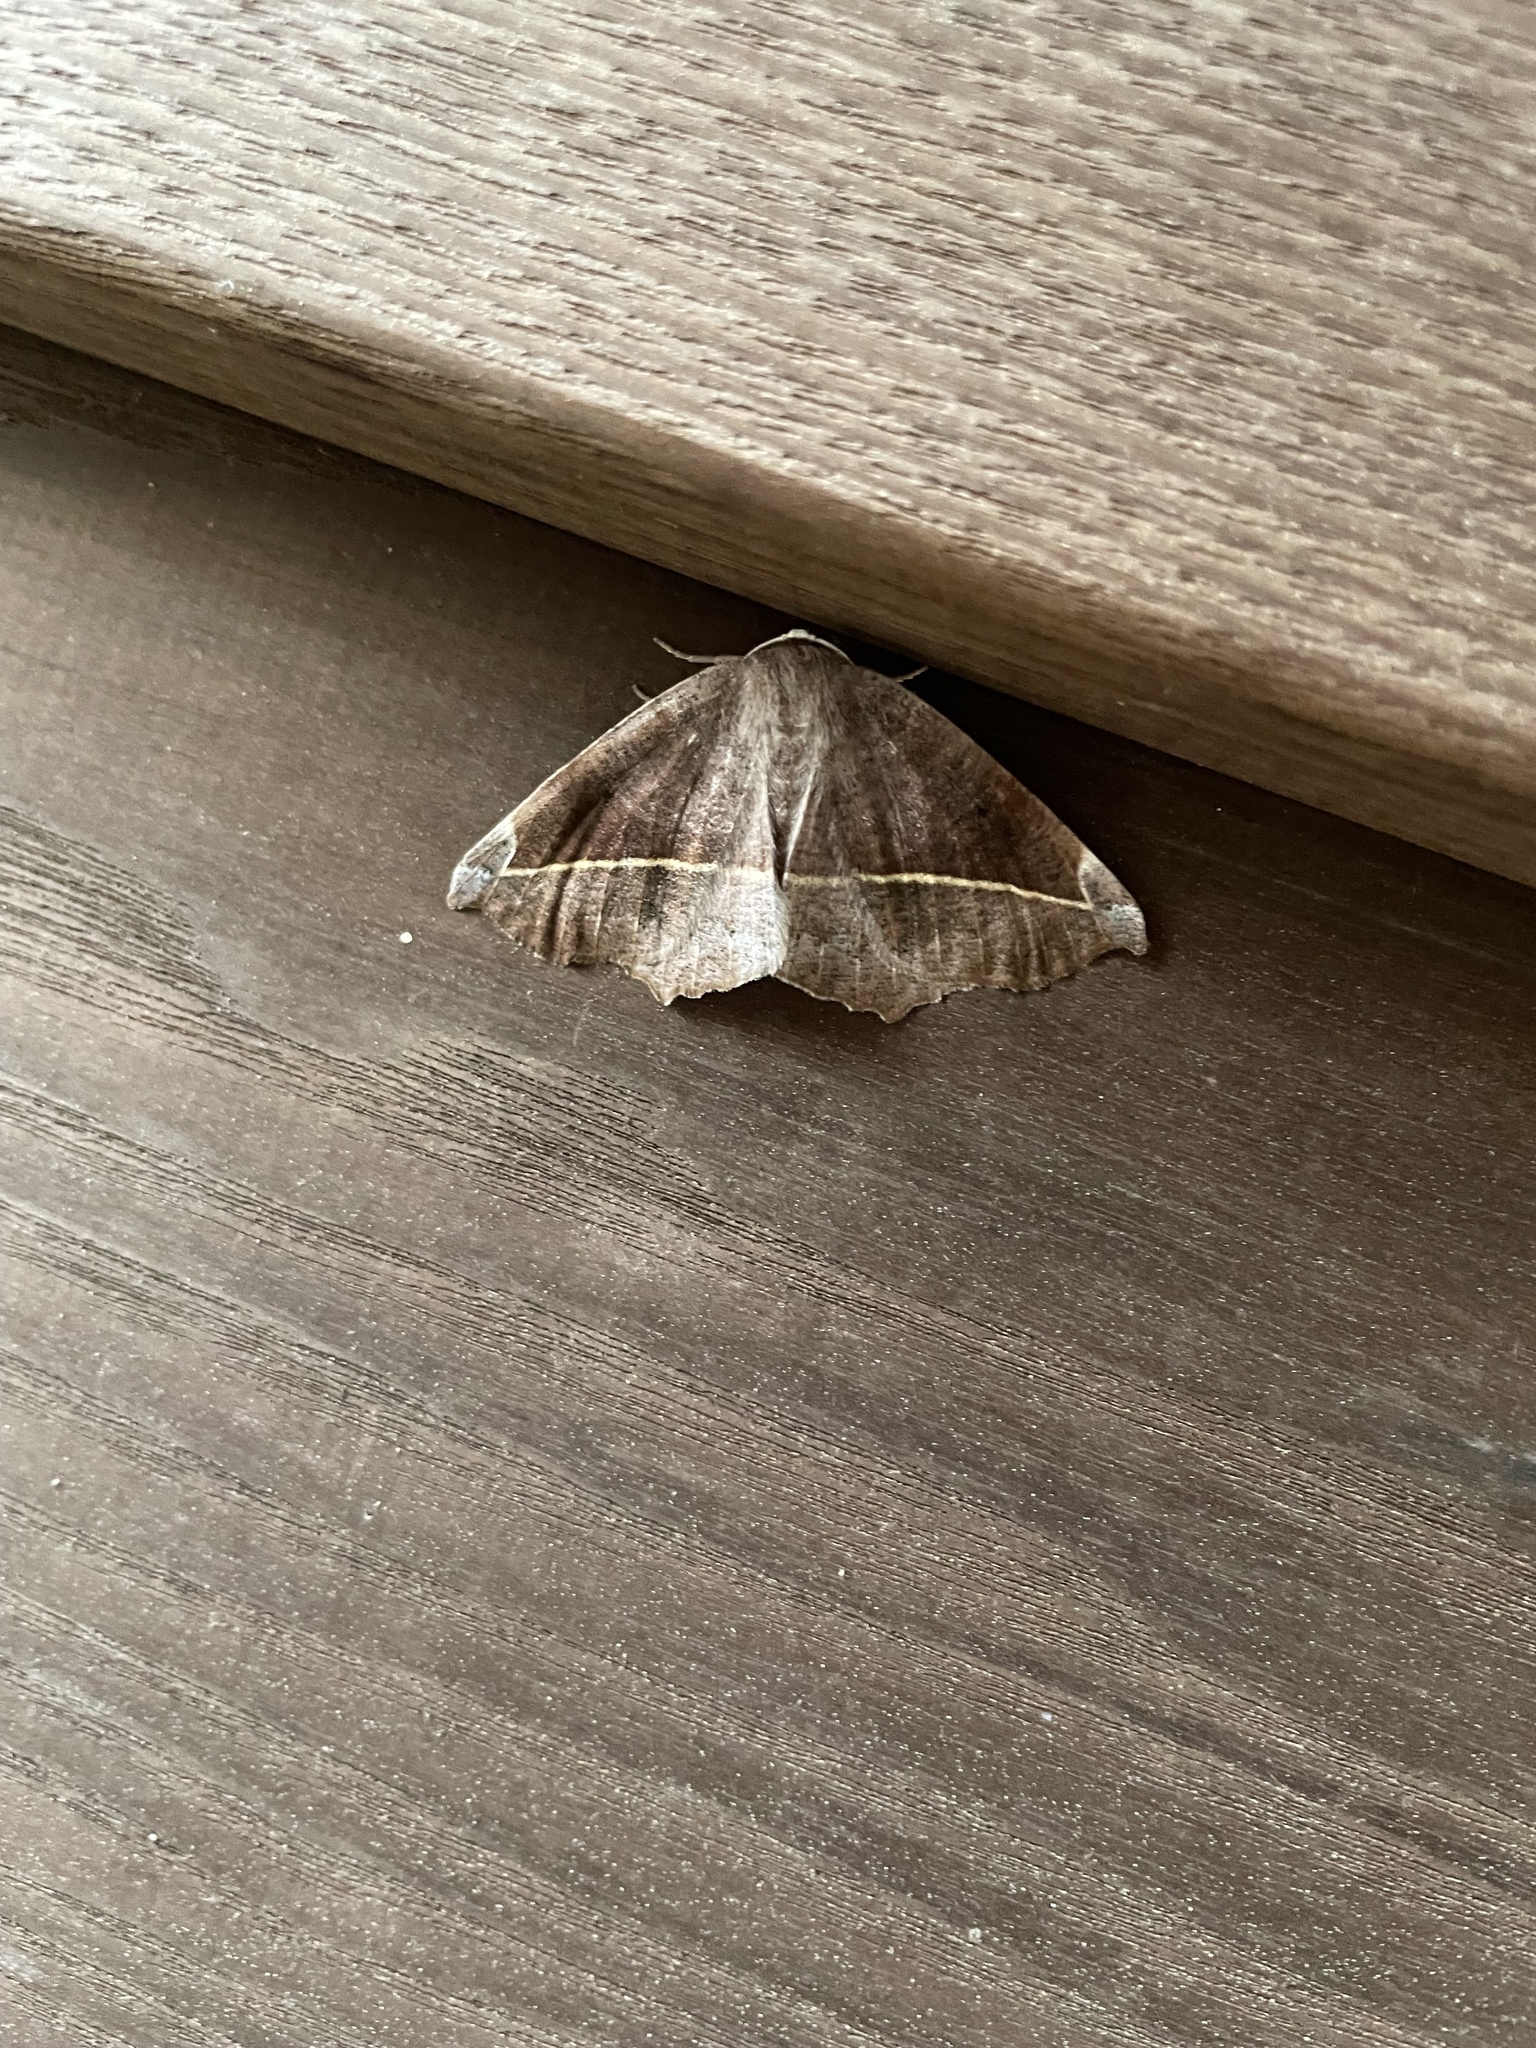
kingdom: Animalia
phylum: Arthropoda
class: Insecta
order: Lepidoptera
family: Geometridae
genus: Eutrapela
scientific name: Eutrapela clemataria
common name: Curved-toothed geometer
